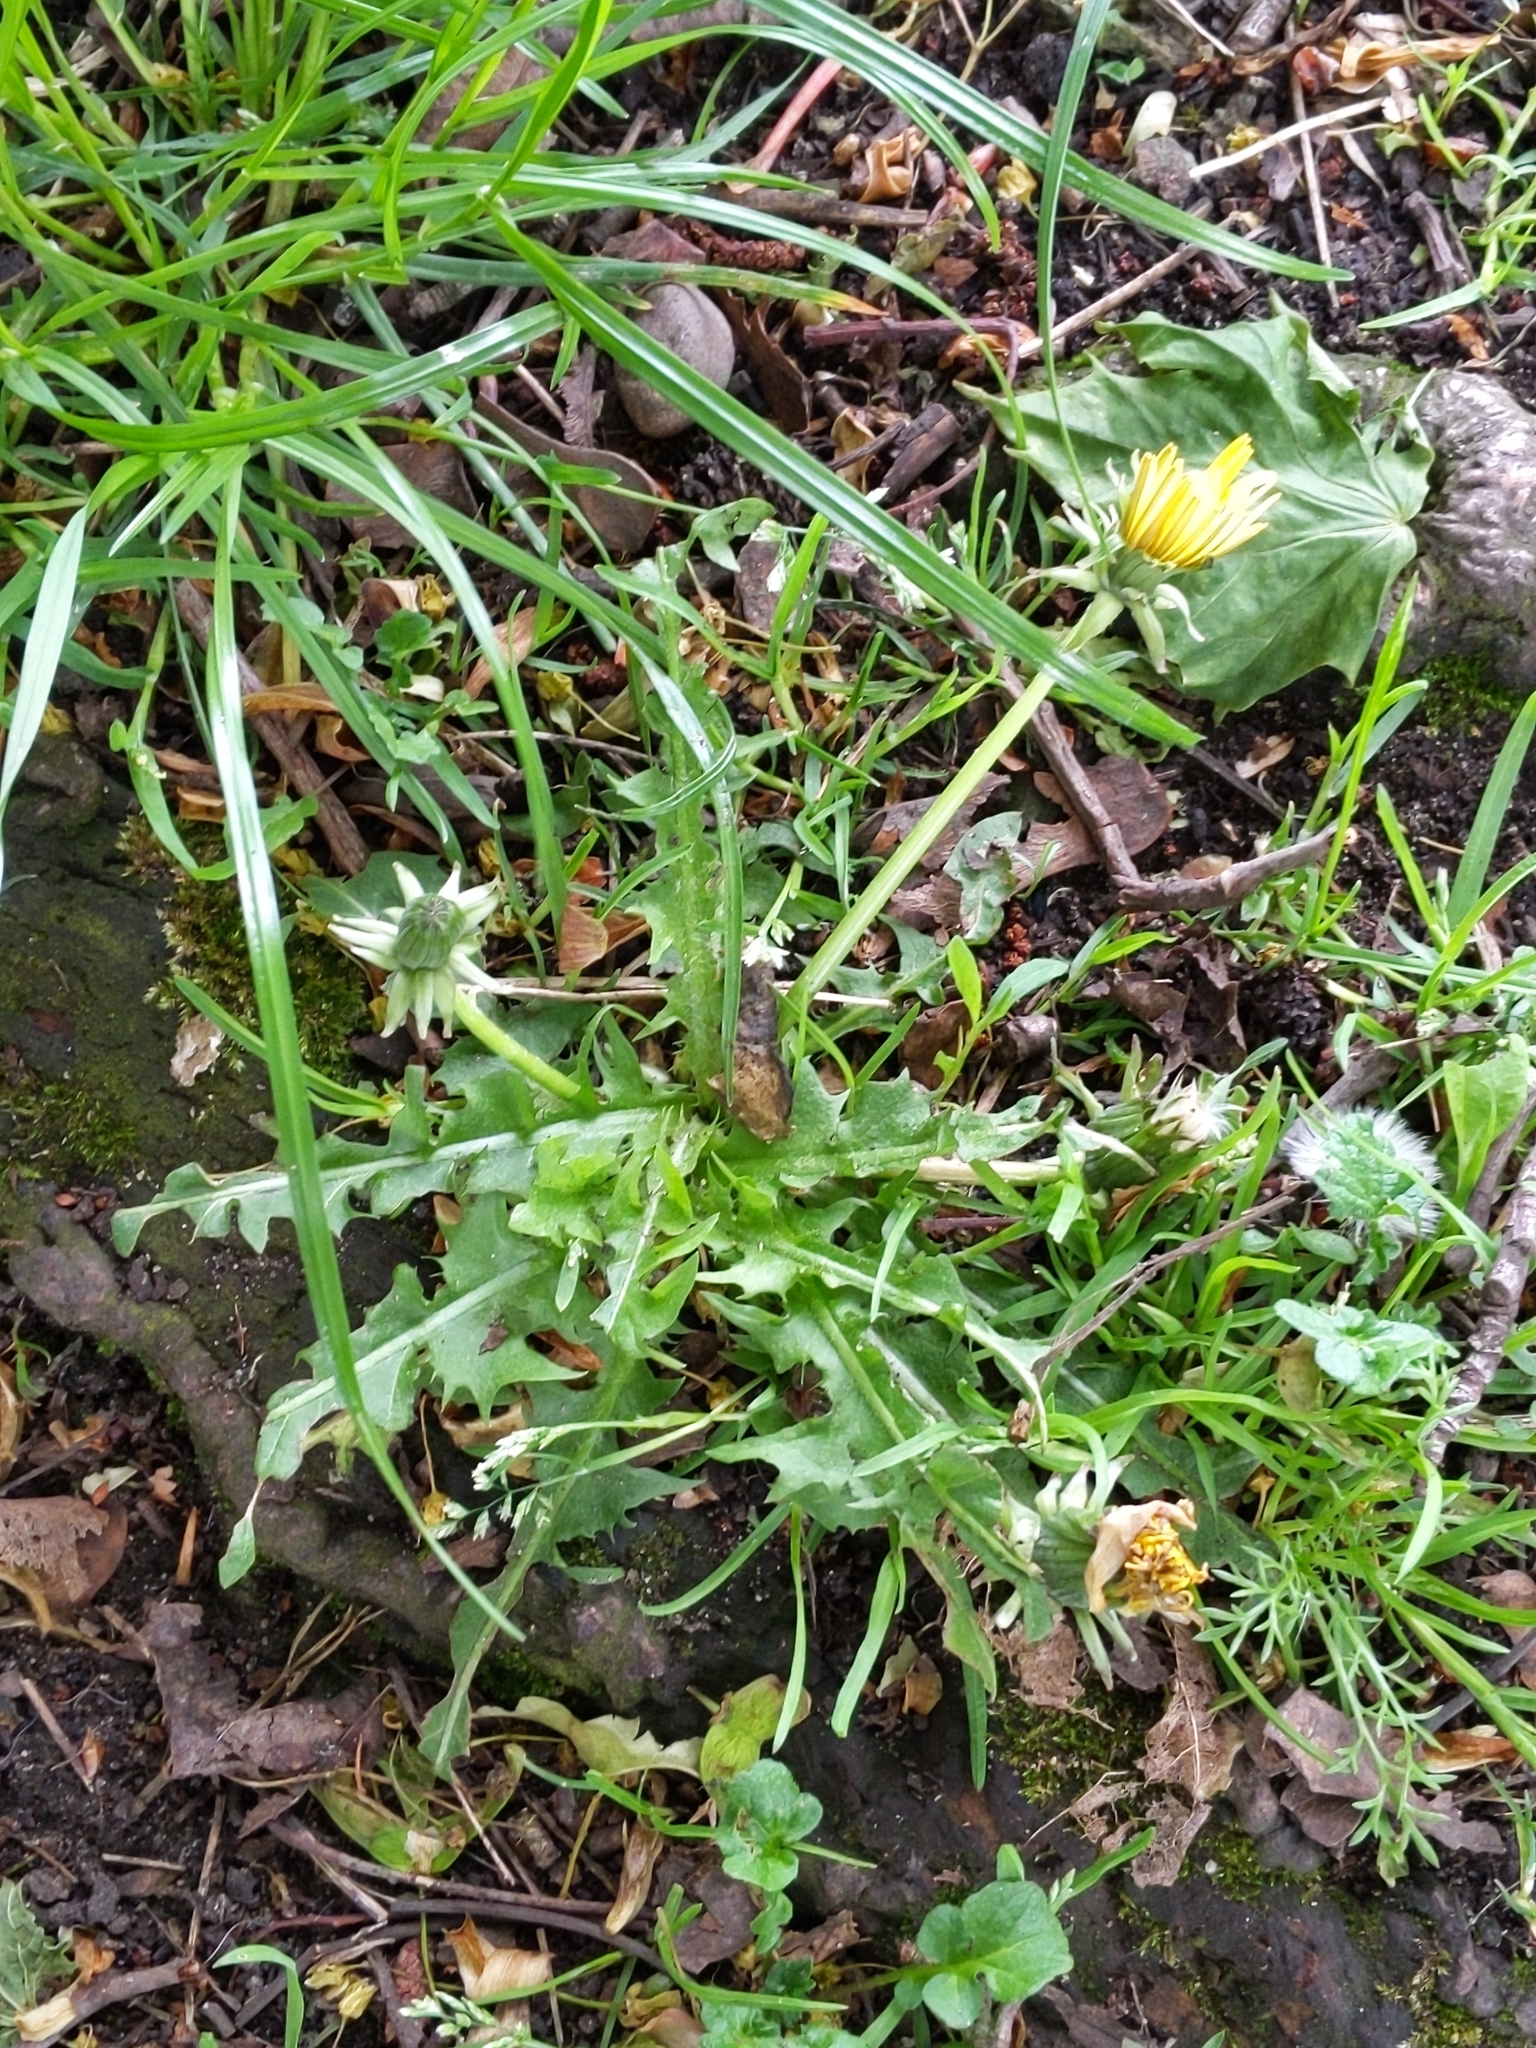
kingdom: Plantae
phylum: Tracheophyta
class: Magnoliopsida
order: Asterales
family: Asteraceae
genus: Taraxacum
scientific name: Taraxacum officinale
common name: Common dandelion
